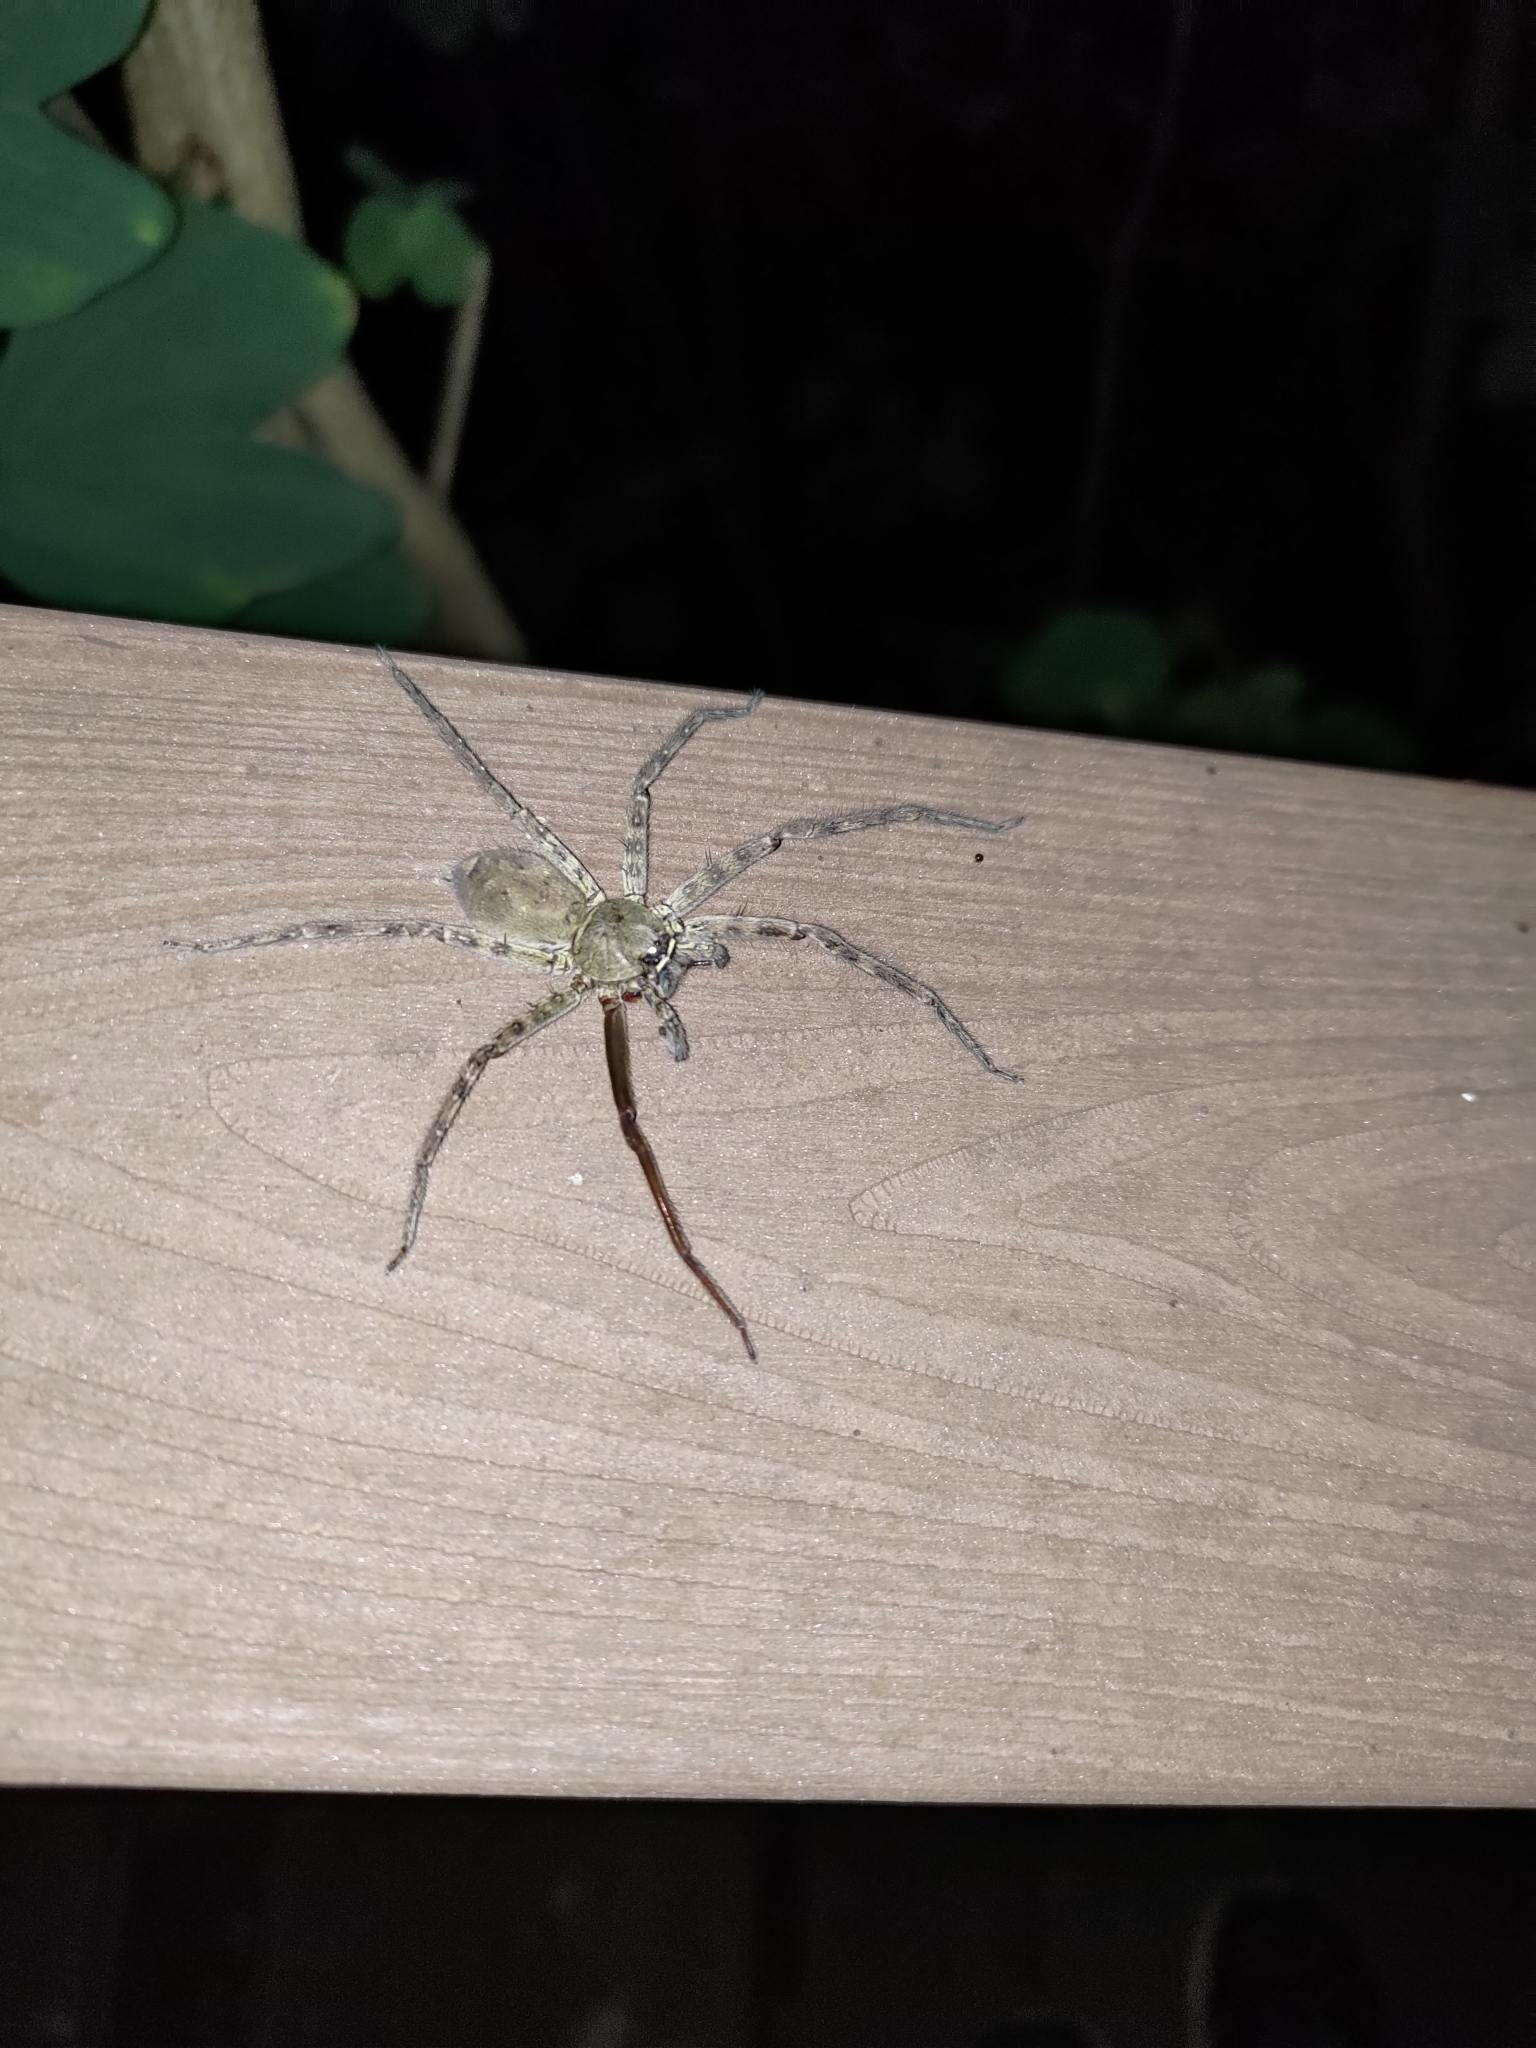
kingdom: Animalia
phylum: Arthropoda
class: Arachnida
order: Araneae
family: Sparassidae
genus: Heteropoda
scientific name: Heteropoda venatoria
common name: Huntsman spider
